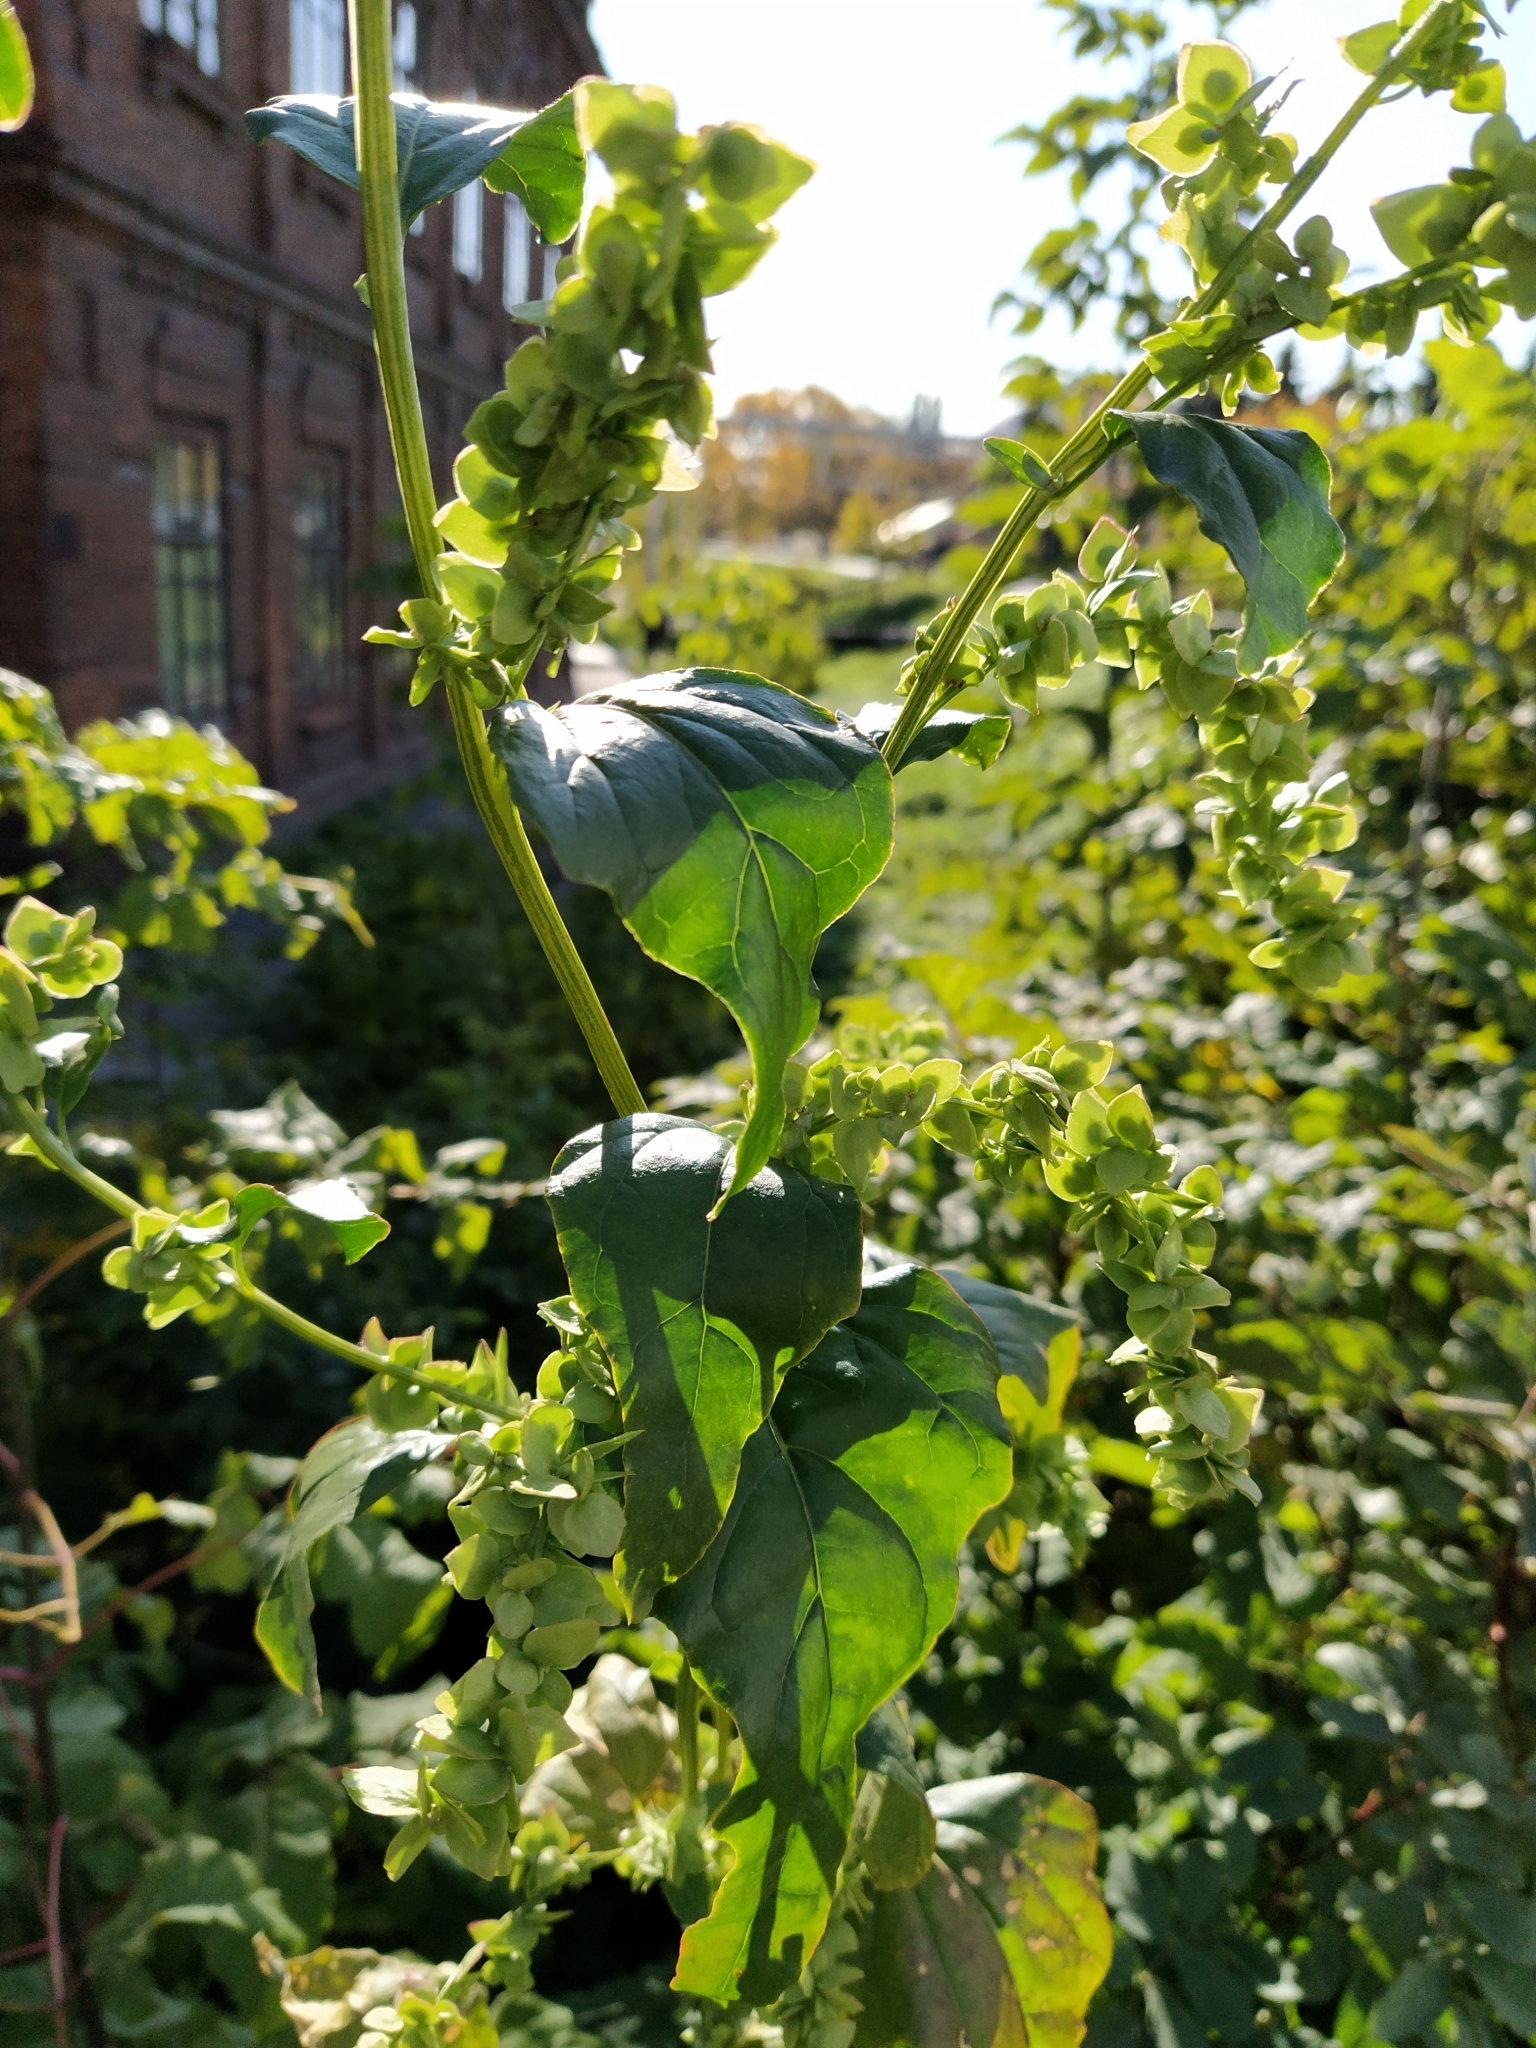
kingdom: Plantae
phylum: Tracheophyta
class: Magnoliopsida
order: Caryophyllales
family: Amaranthaceae
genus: Atriplex
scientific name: Atriplex sagittata
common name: Purple orache
